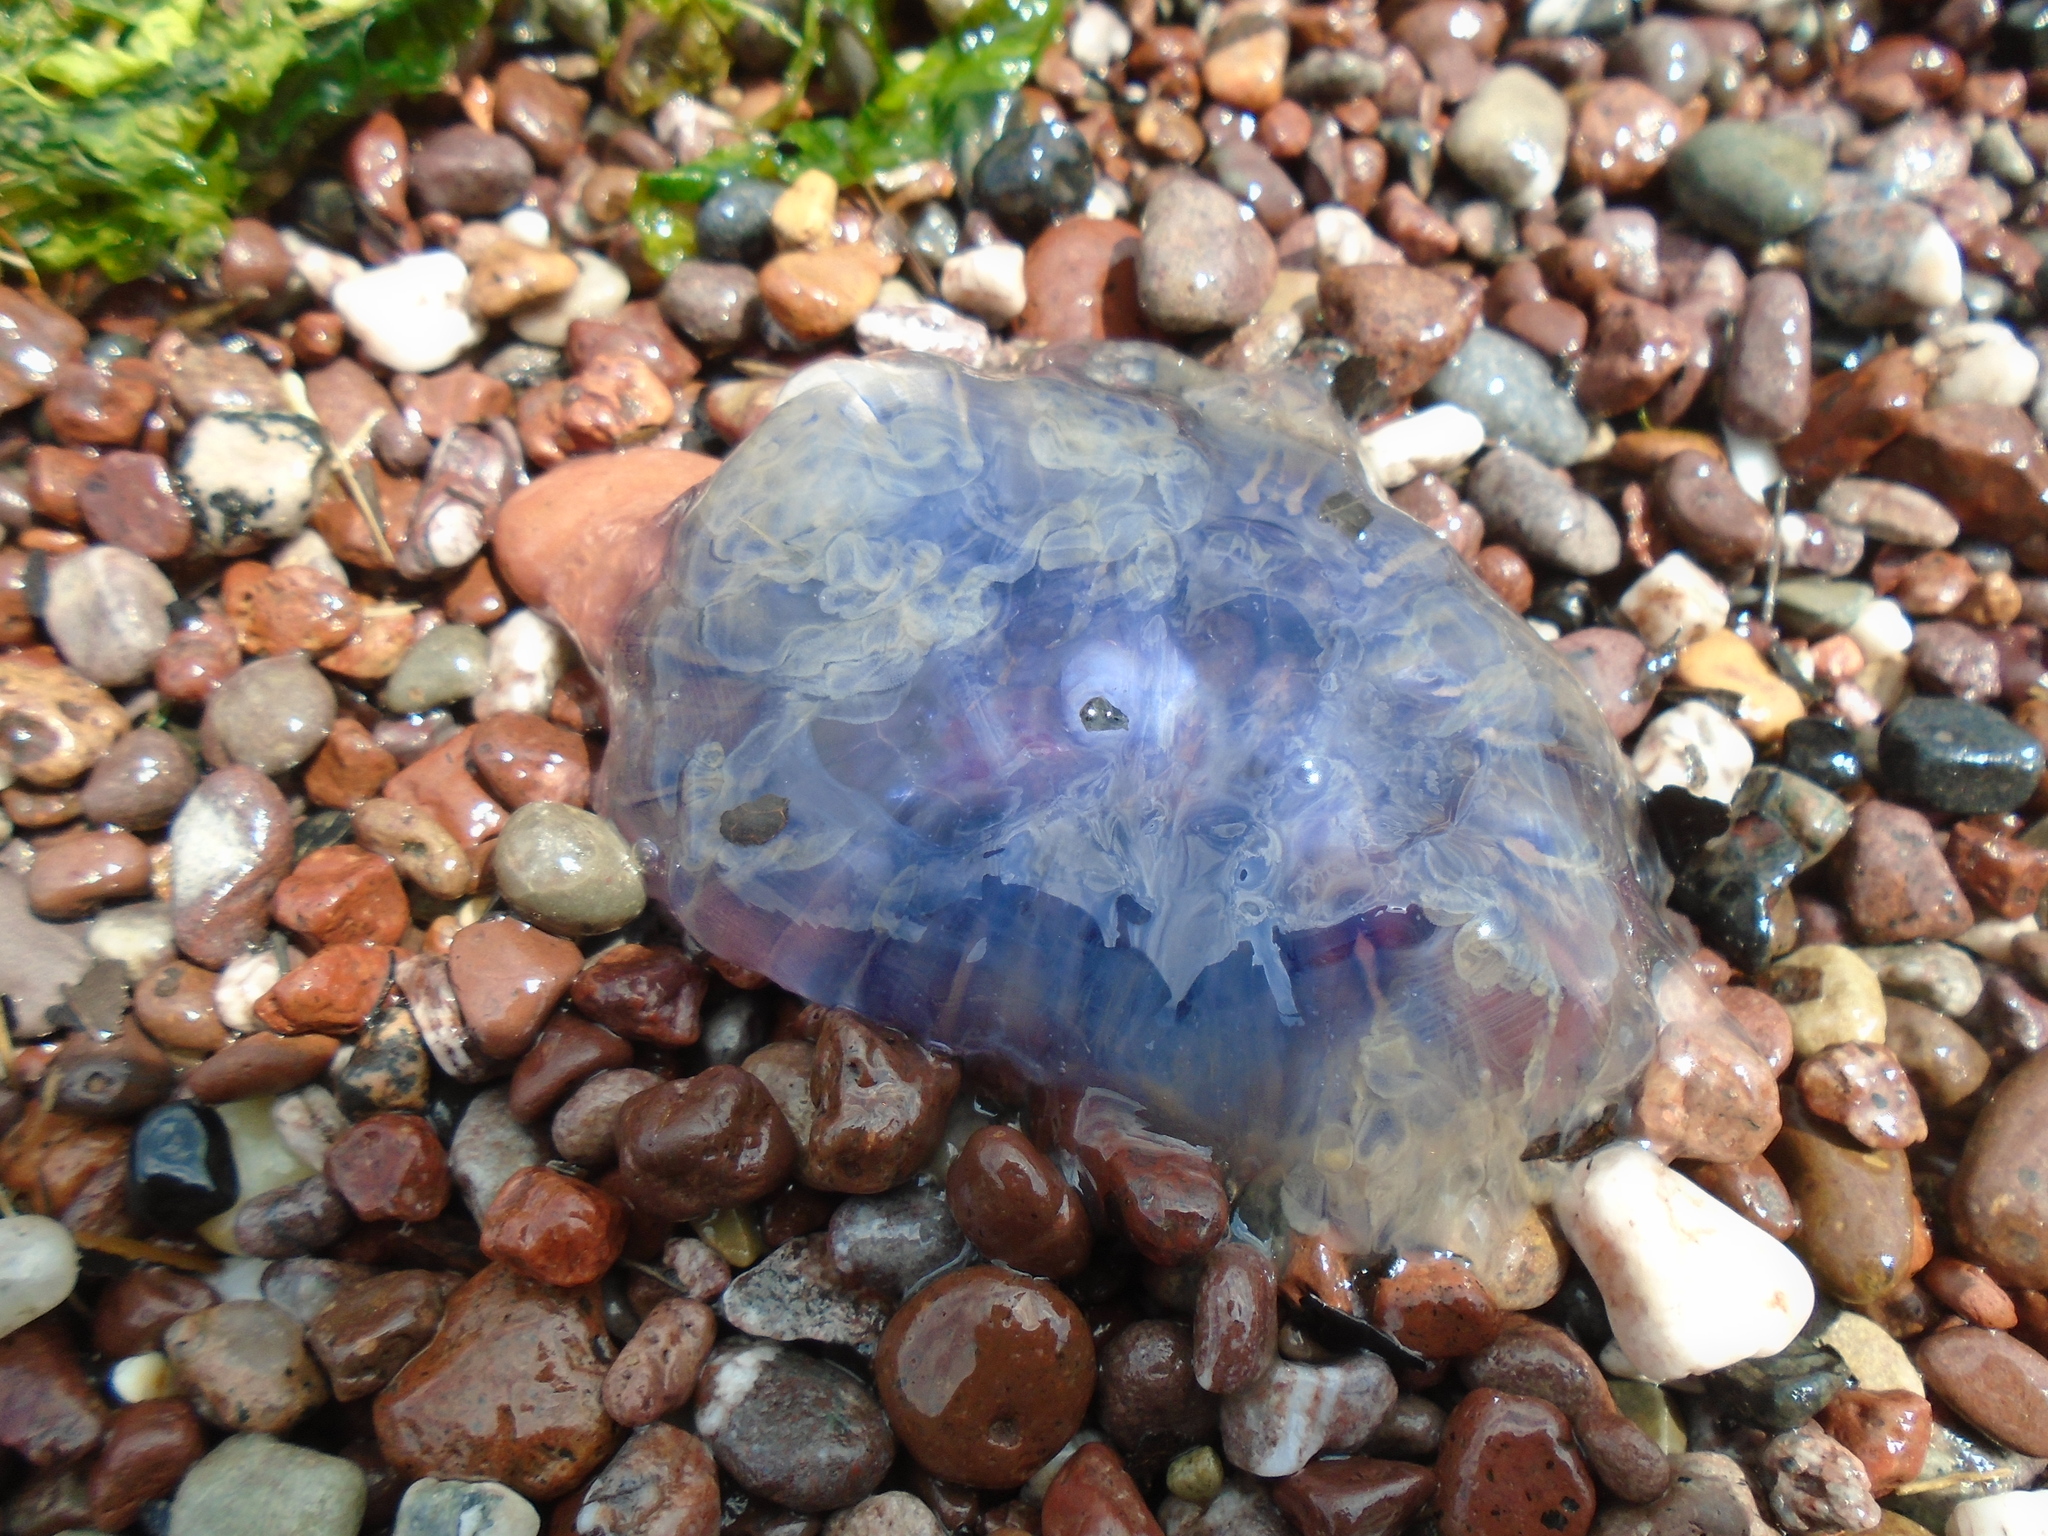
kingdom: Animalia
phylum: Cnidaria
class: Scyphozoa
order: Semaeostomeae
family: Cyaneidae
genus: Cyanea
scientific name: Cyanea lamarckii
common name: Blue jellyfish
